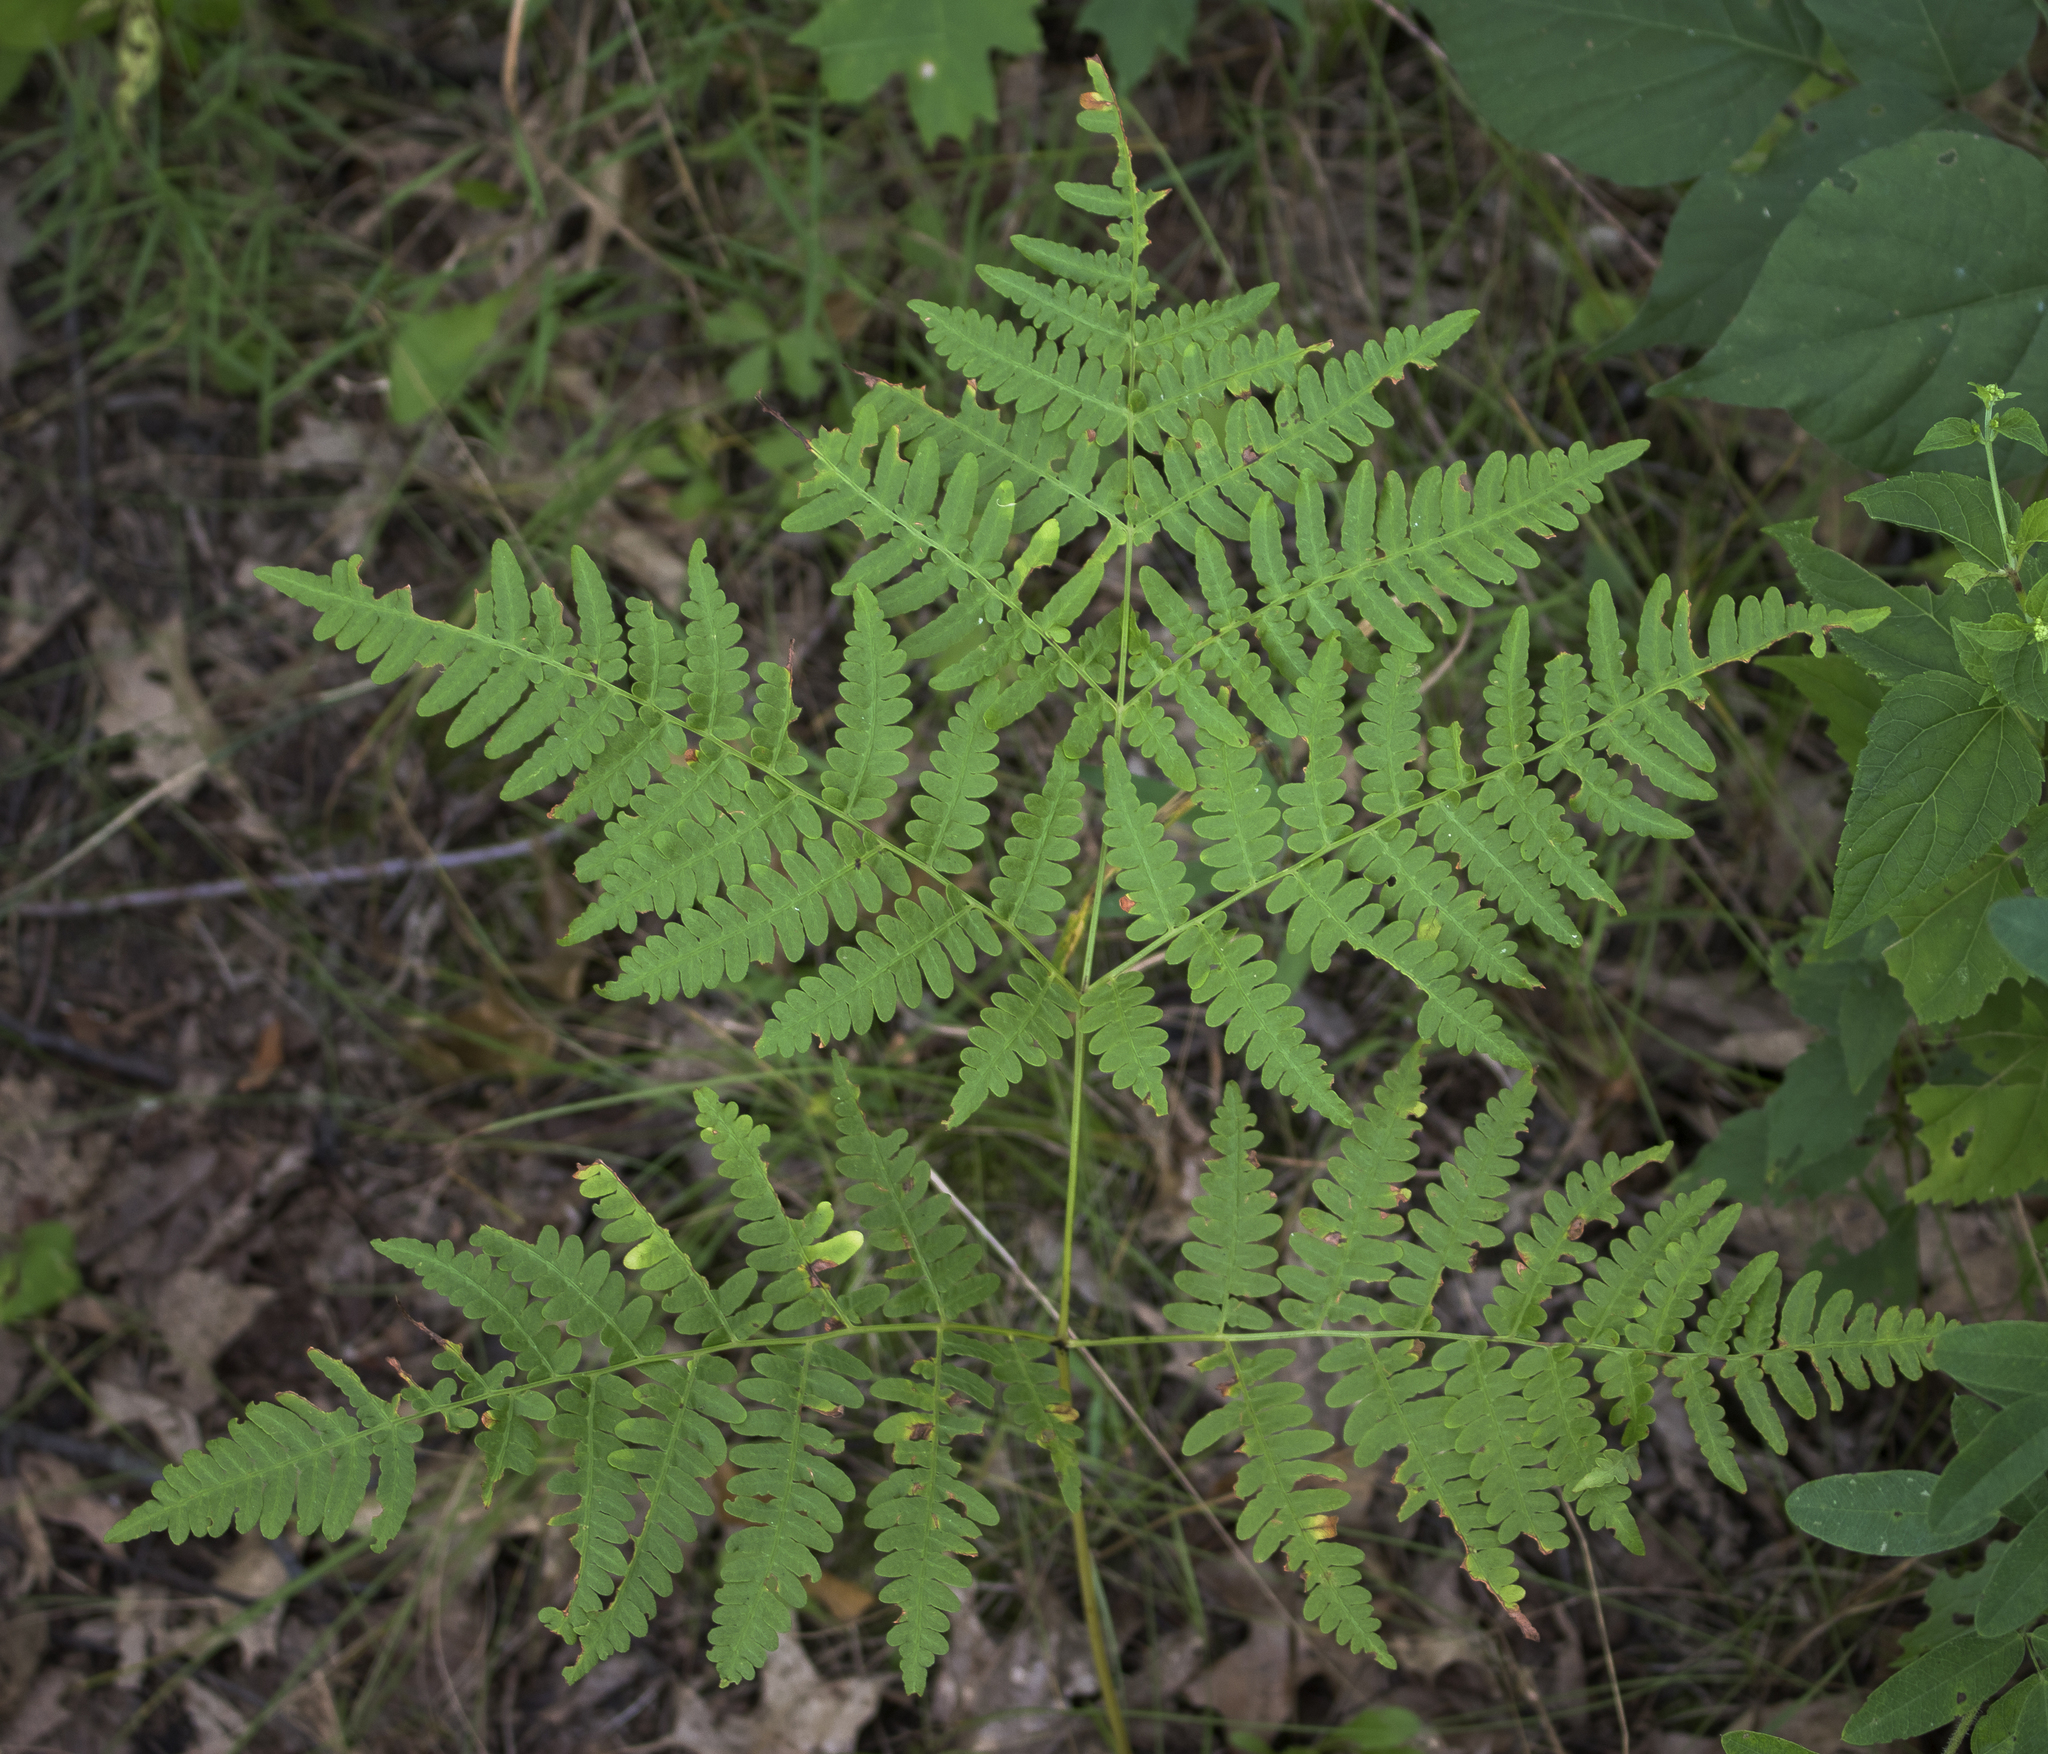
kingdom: Plantae
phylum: Tracheophyta
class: Polypodiopsida
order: Polypodiales
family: Dennstaedtiaceae
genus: Pteridium
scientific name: Pteridium aquilinum
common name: Bracken
